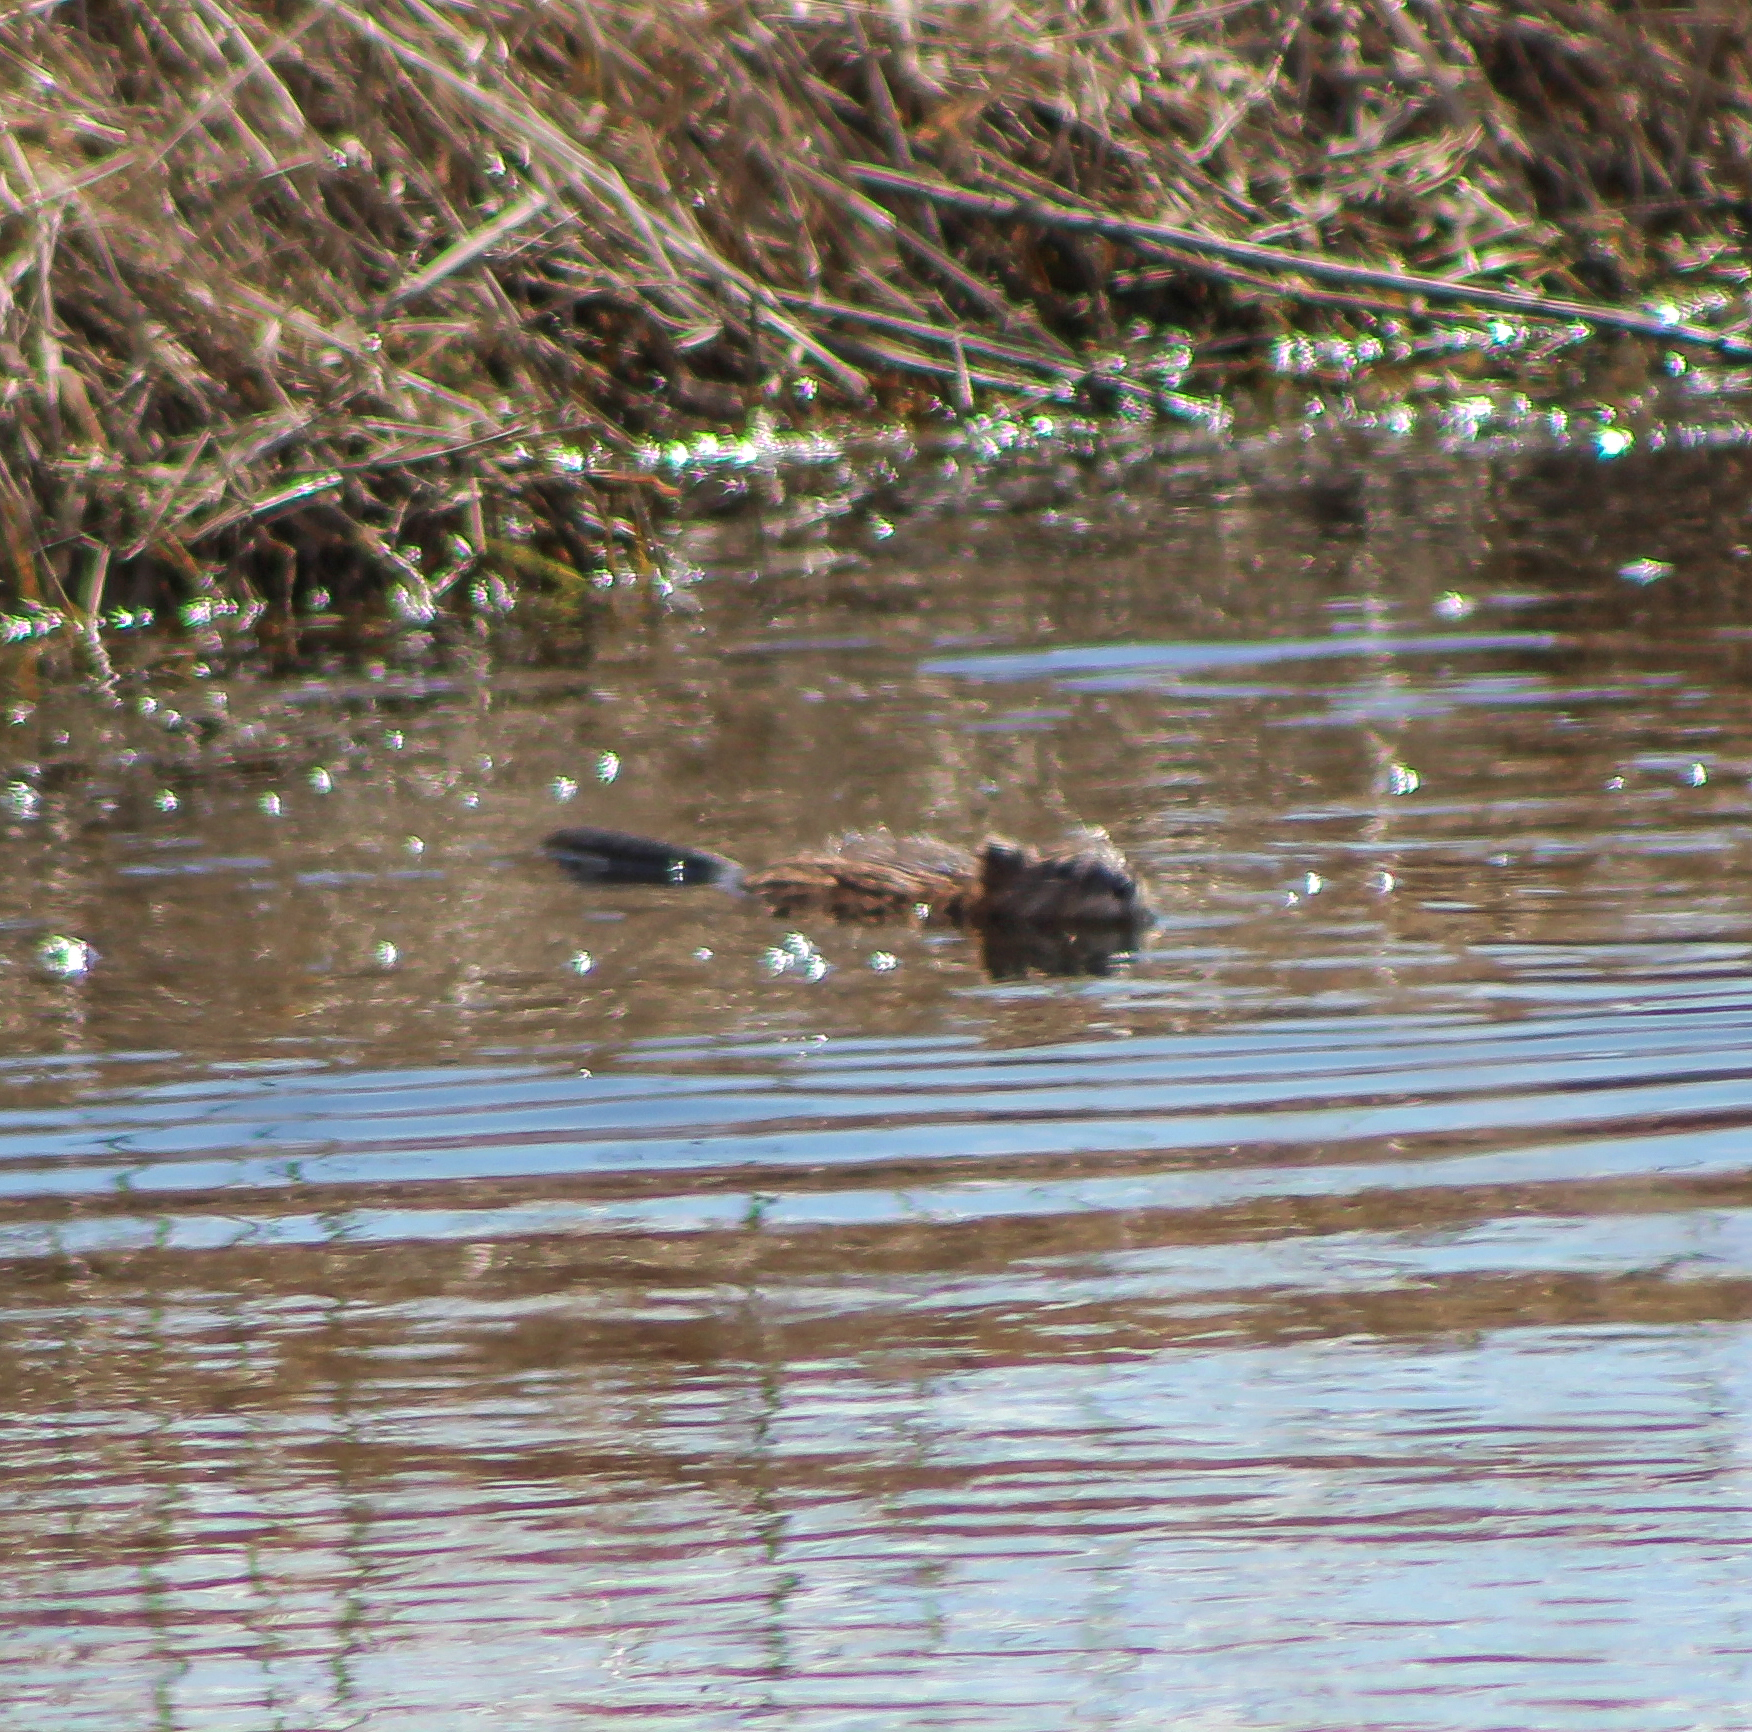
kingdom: Animalia
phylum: Chordata
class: Mammalia
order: Rodentia
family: Cricetidae
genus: Ondatra
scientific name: Ondatra zibethicus
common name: Muskrat
